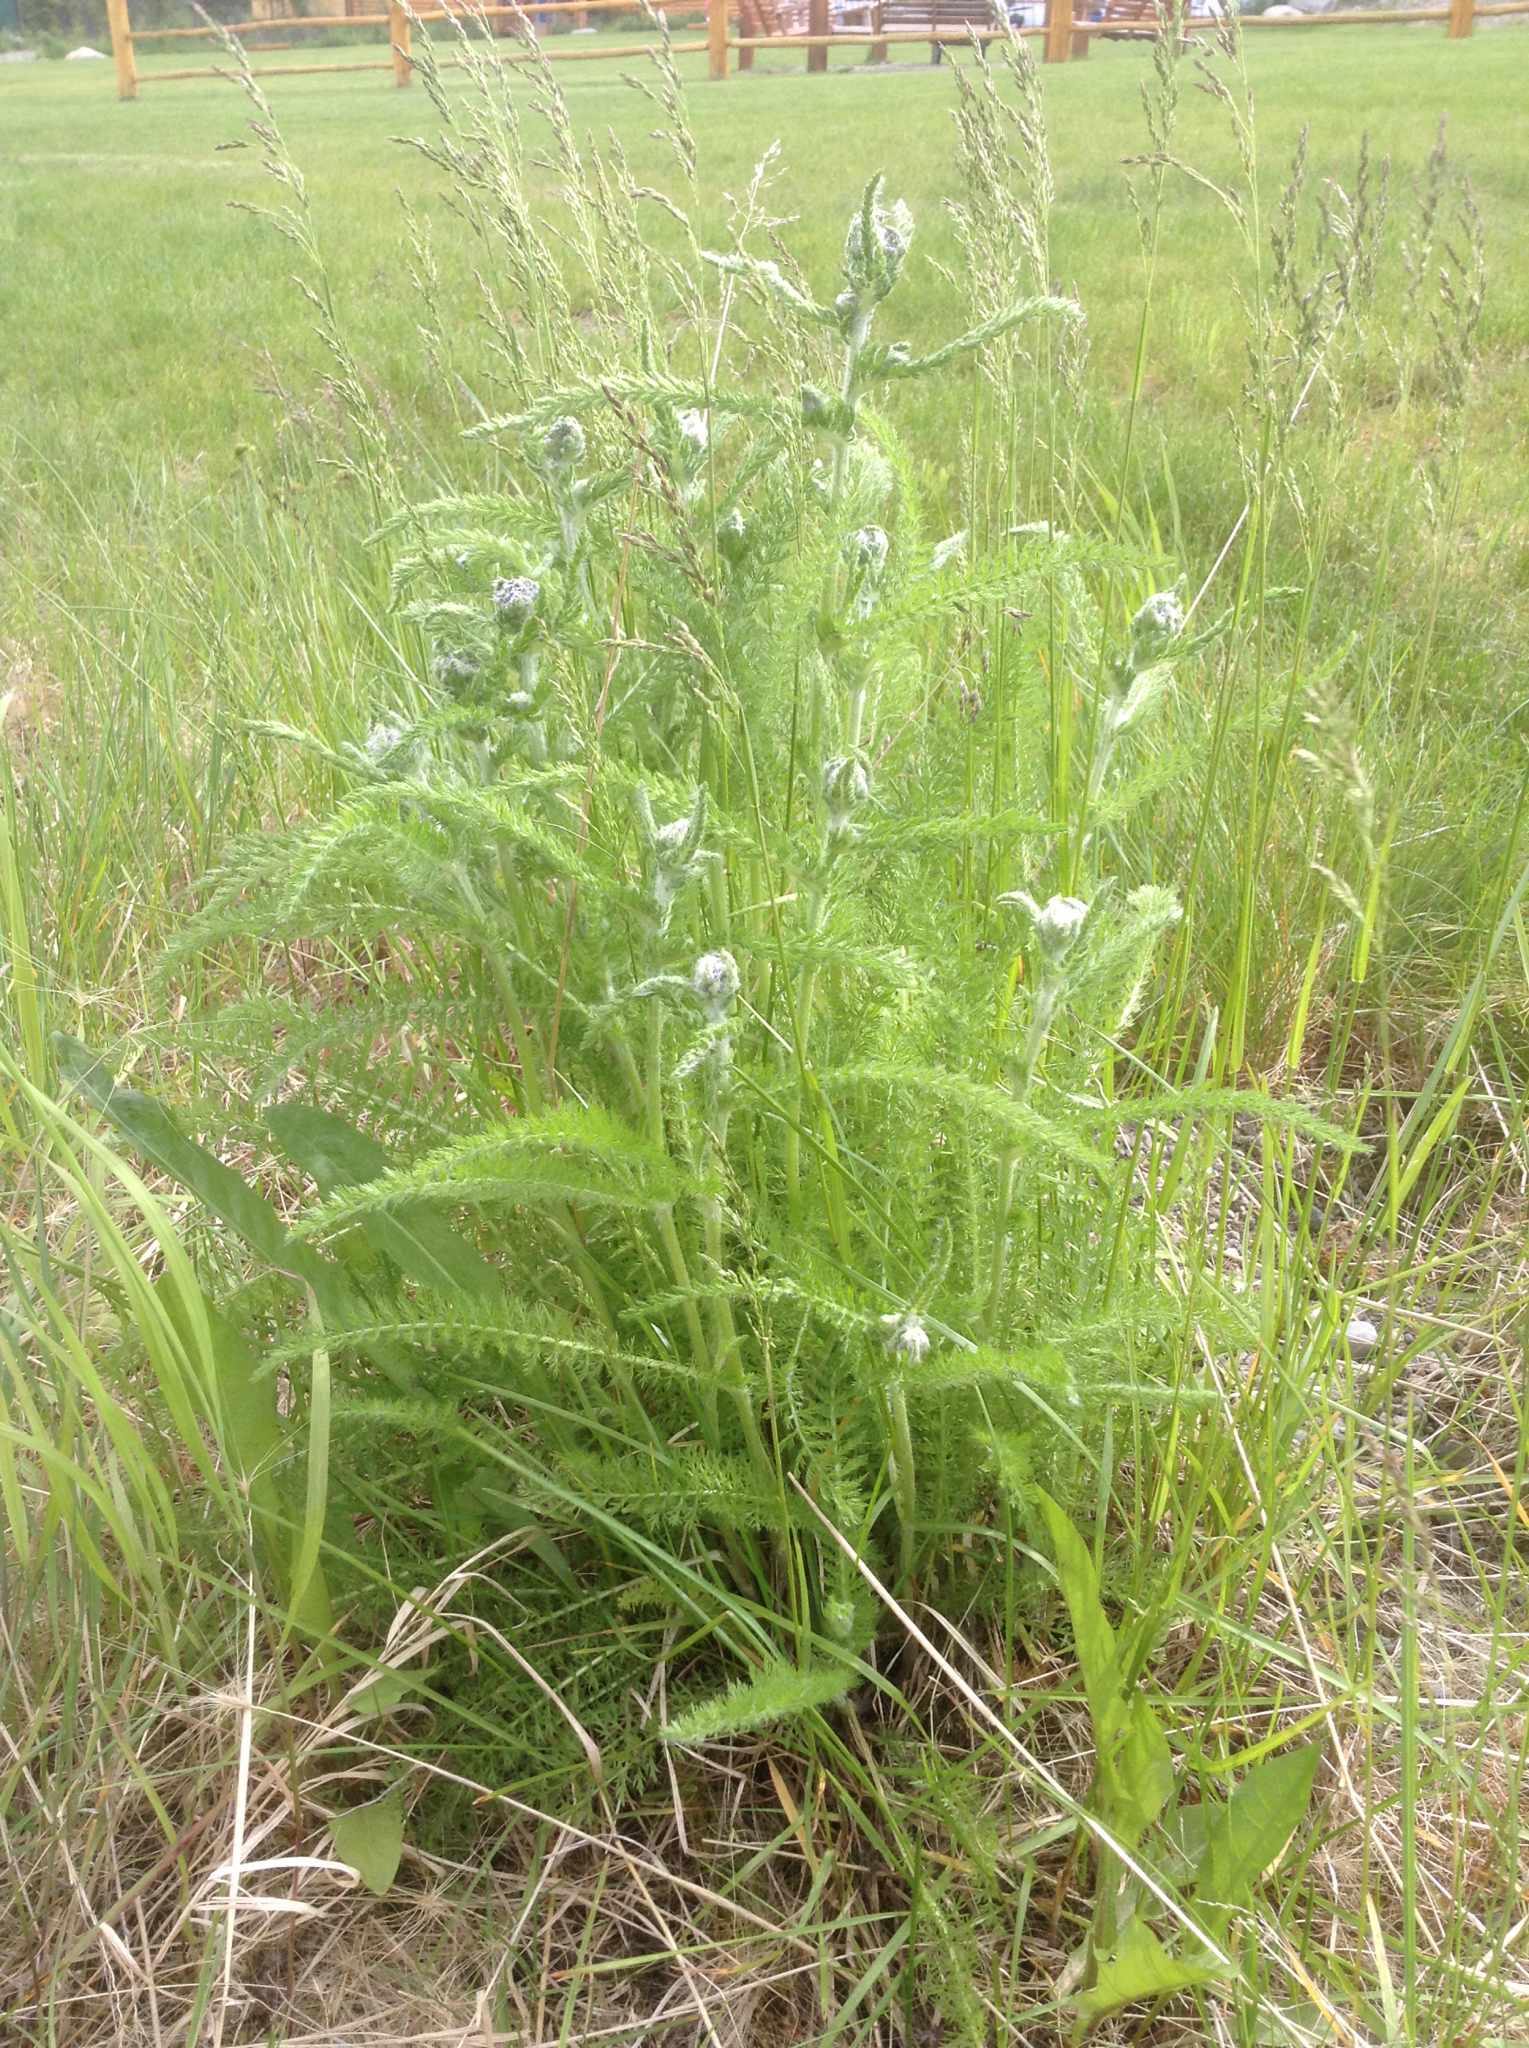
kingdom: Plantae
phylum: Tracheophyta
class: Magnoliopsida
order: Asterales
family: Asteraceae
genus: Achillea
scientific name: Achillea millefolium
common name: Yarrow
